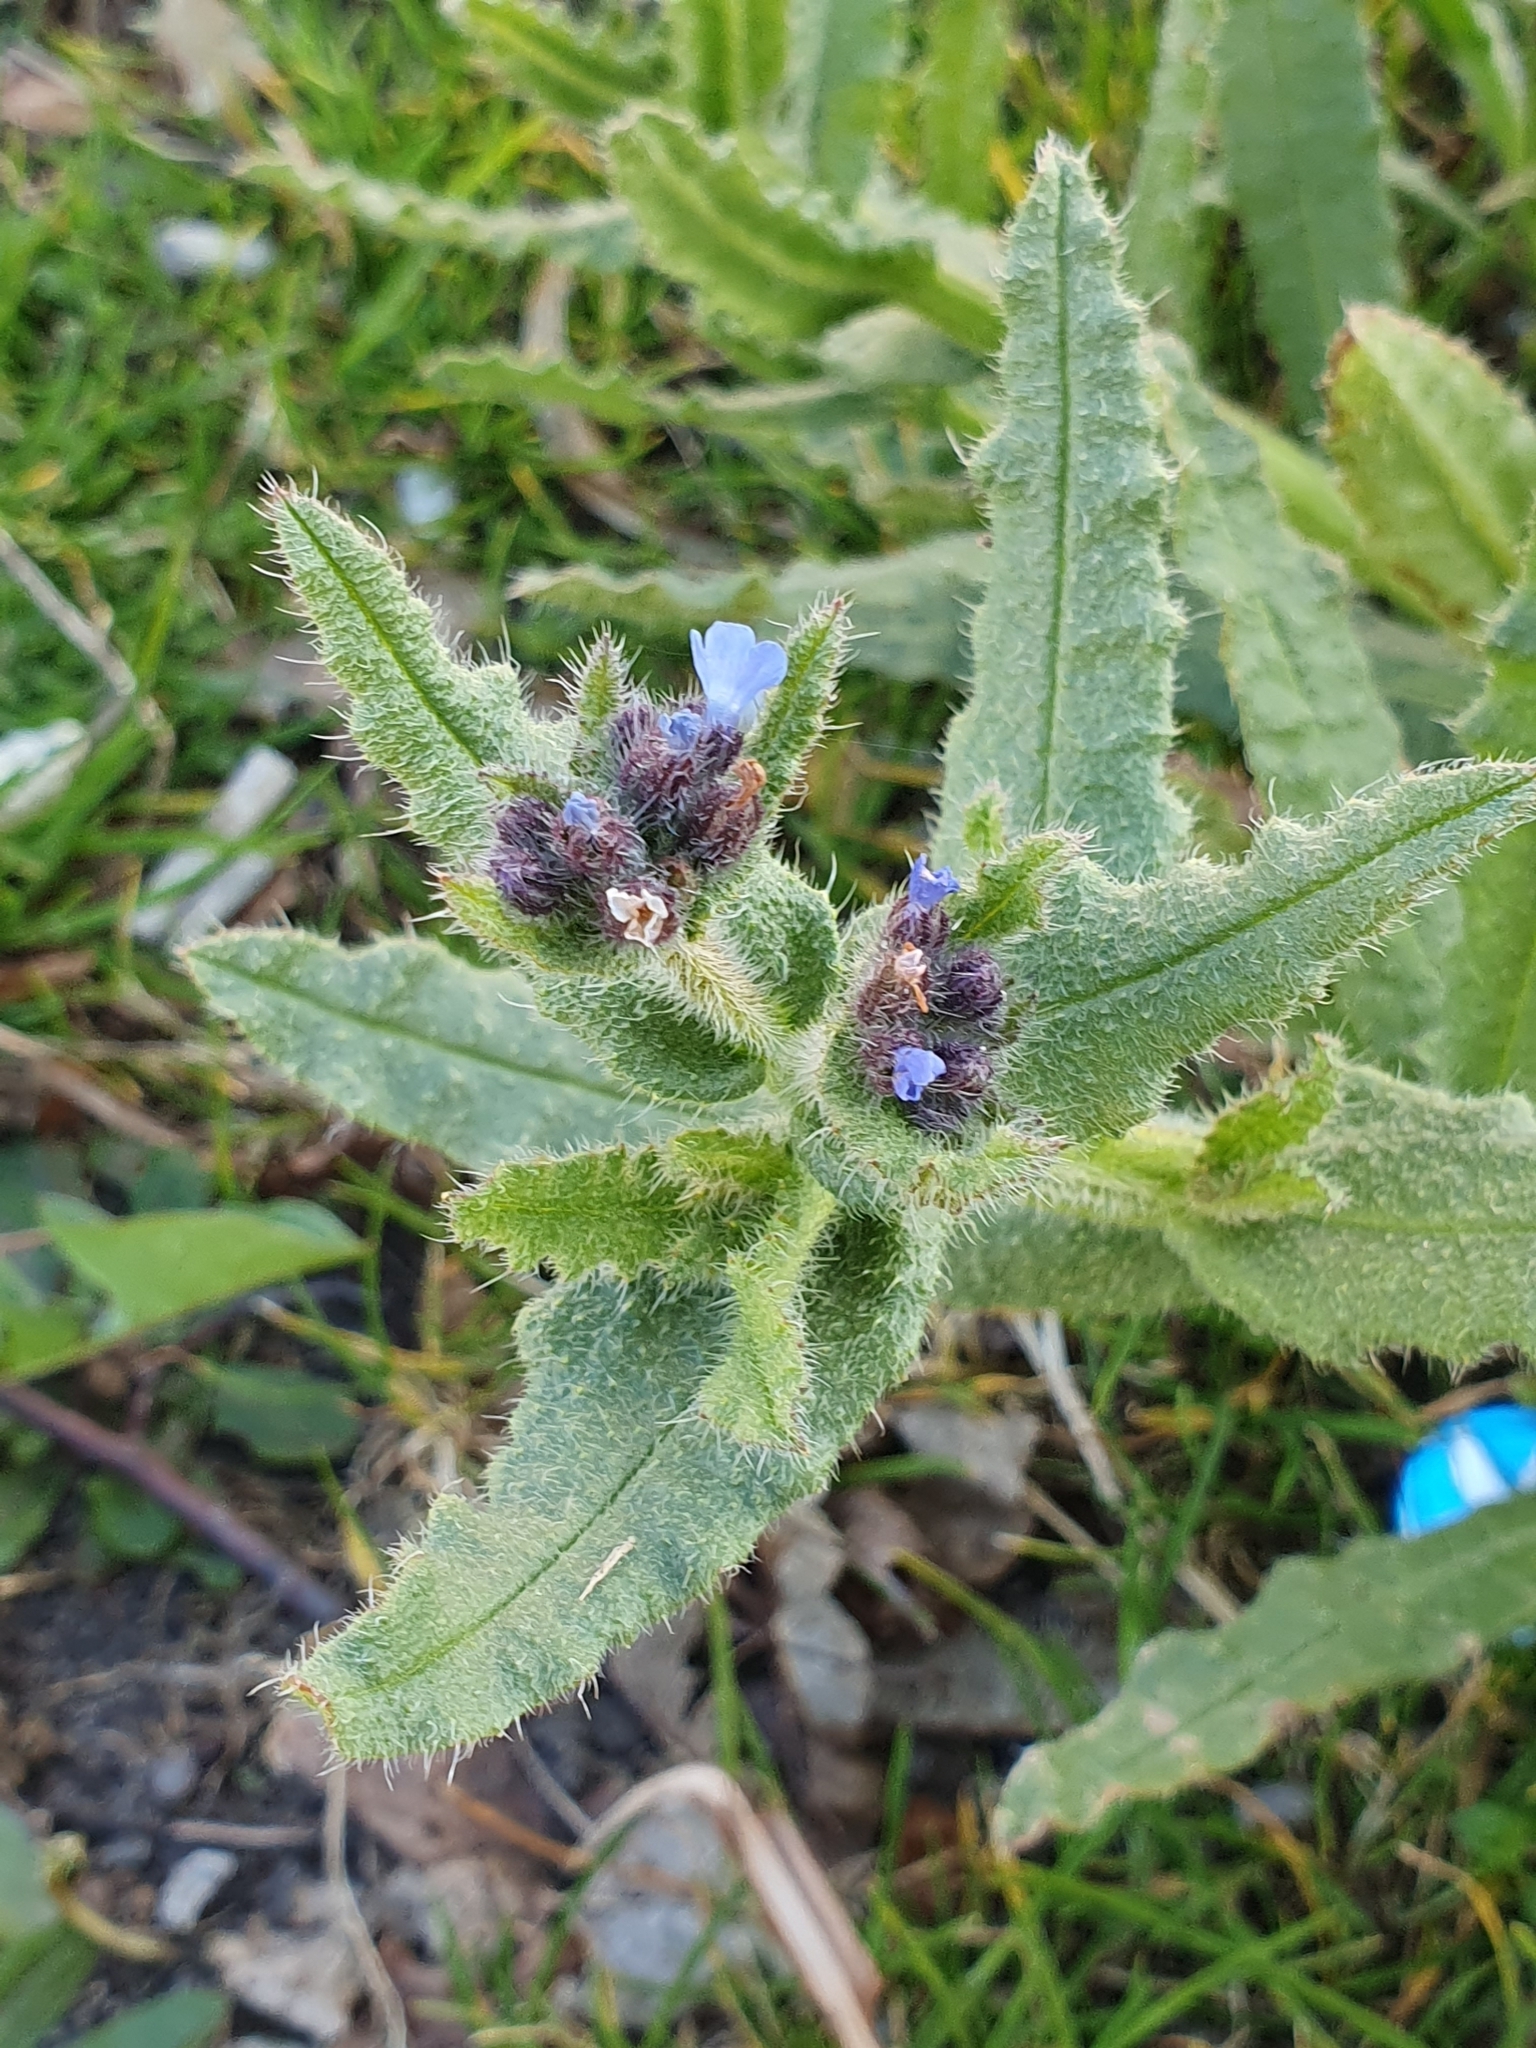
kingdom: Plantae
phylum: Tracheophyta
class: Magnoliopsida
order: Boraginales
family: Boraginaceae
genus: Lycopsis
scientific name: Lycopsis arvensis
